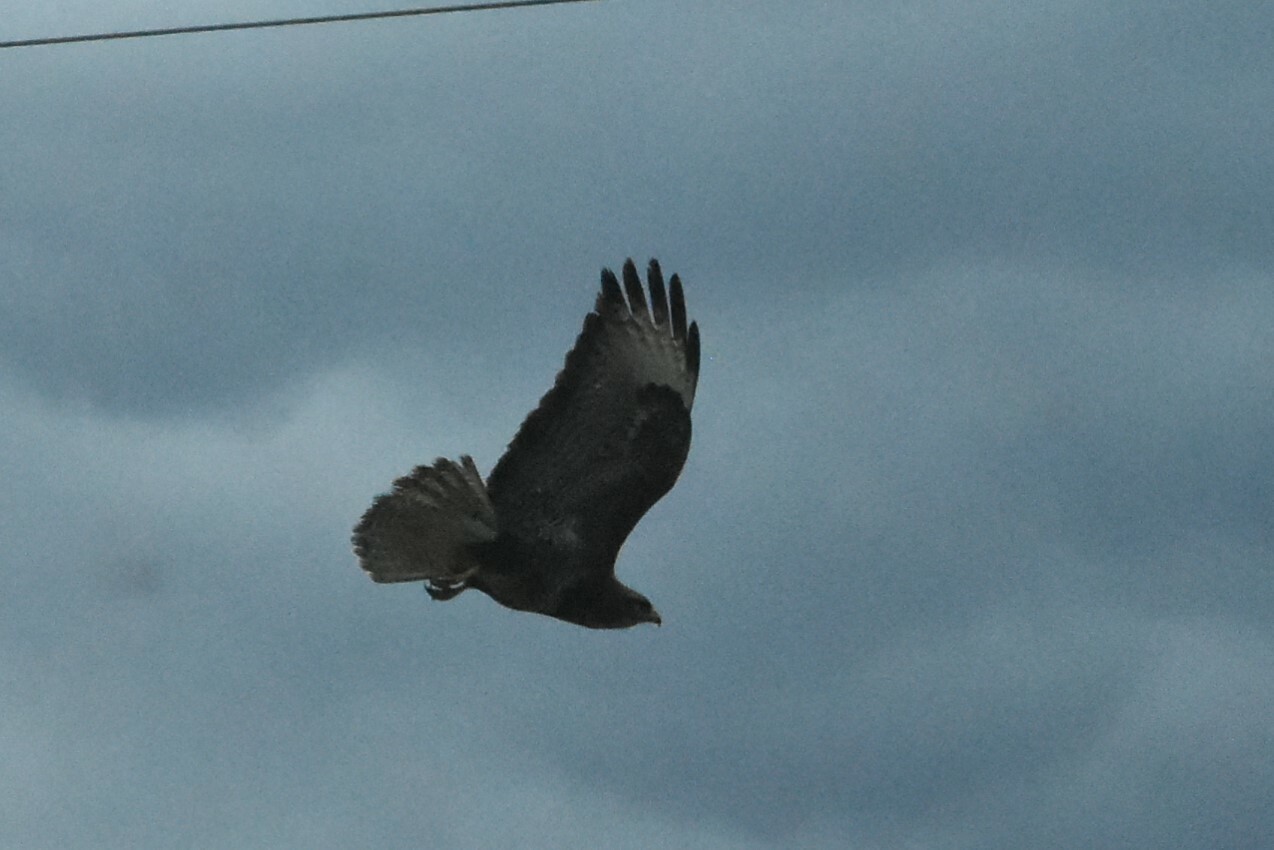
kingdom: Animalia
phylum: Chordata
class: Aves
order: Accipitriformes
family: Accipitridae
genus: Buteo
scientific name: Buteo buteo
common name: Common buzzard
